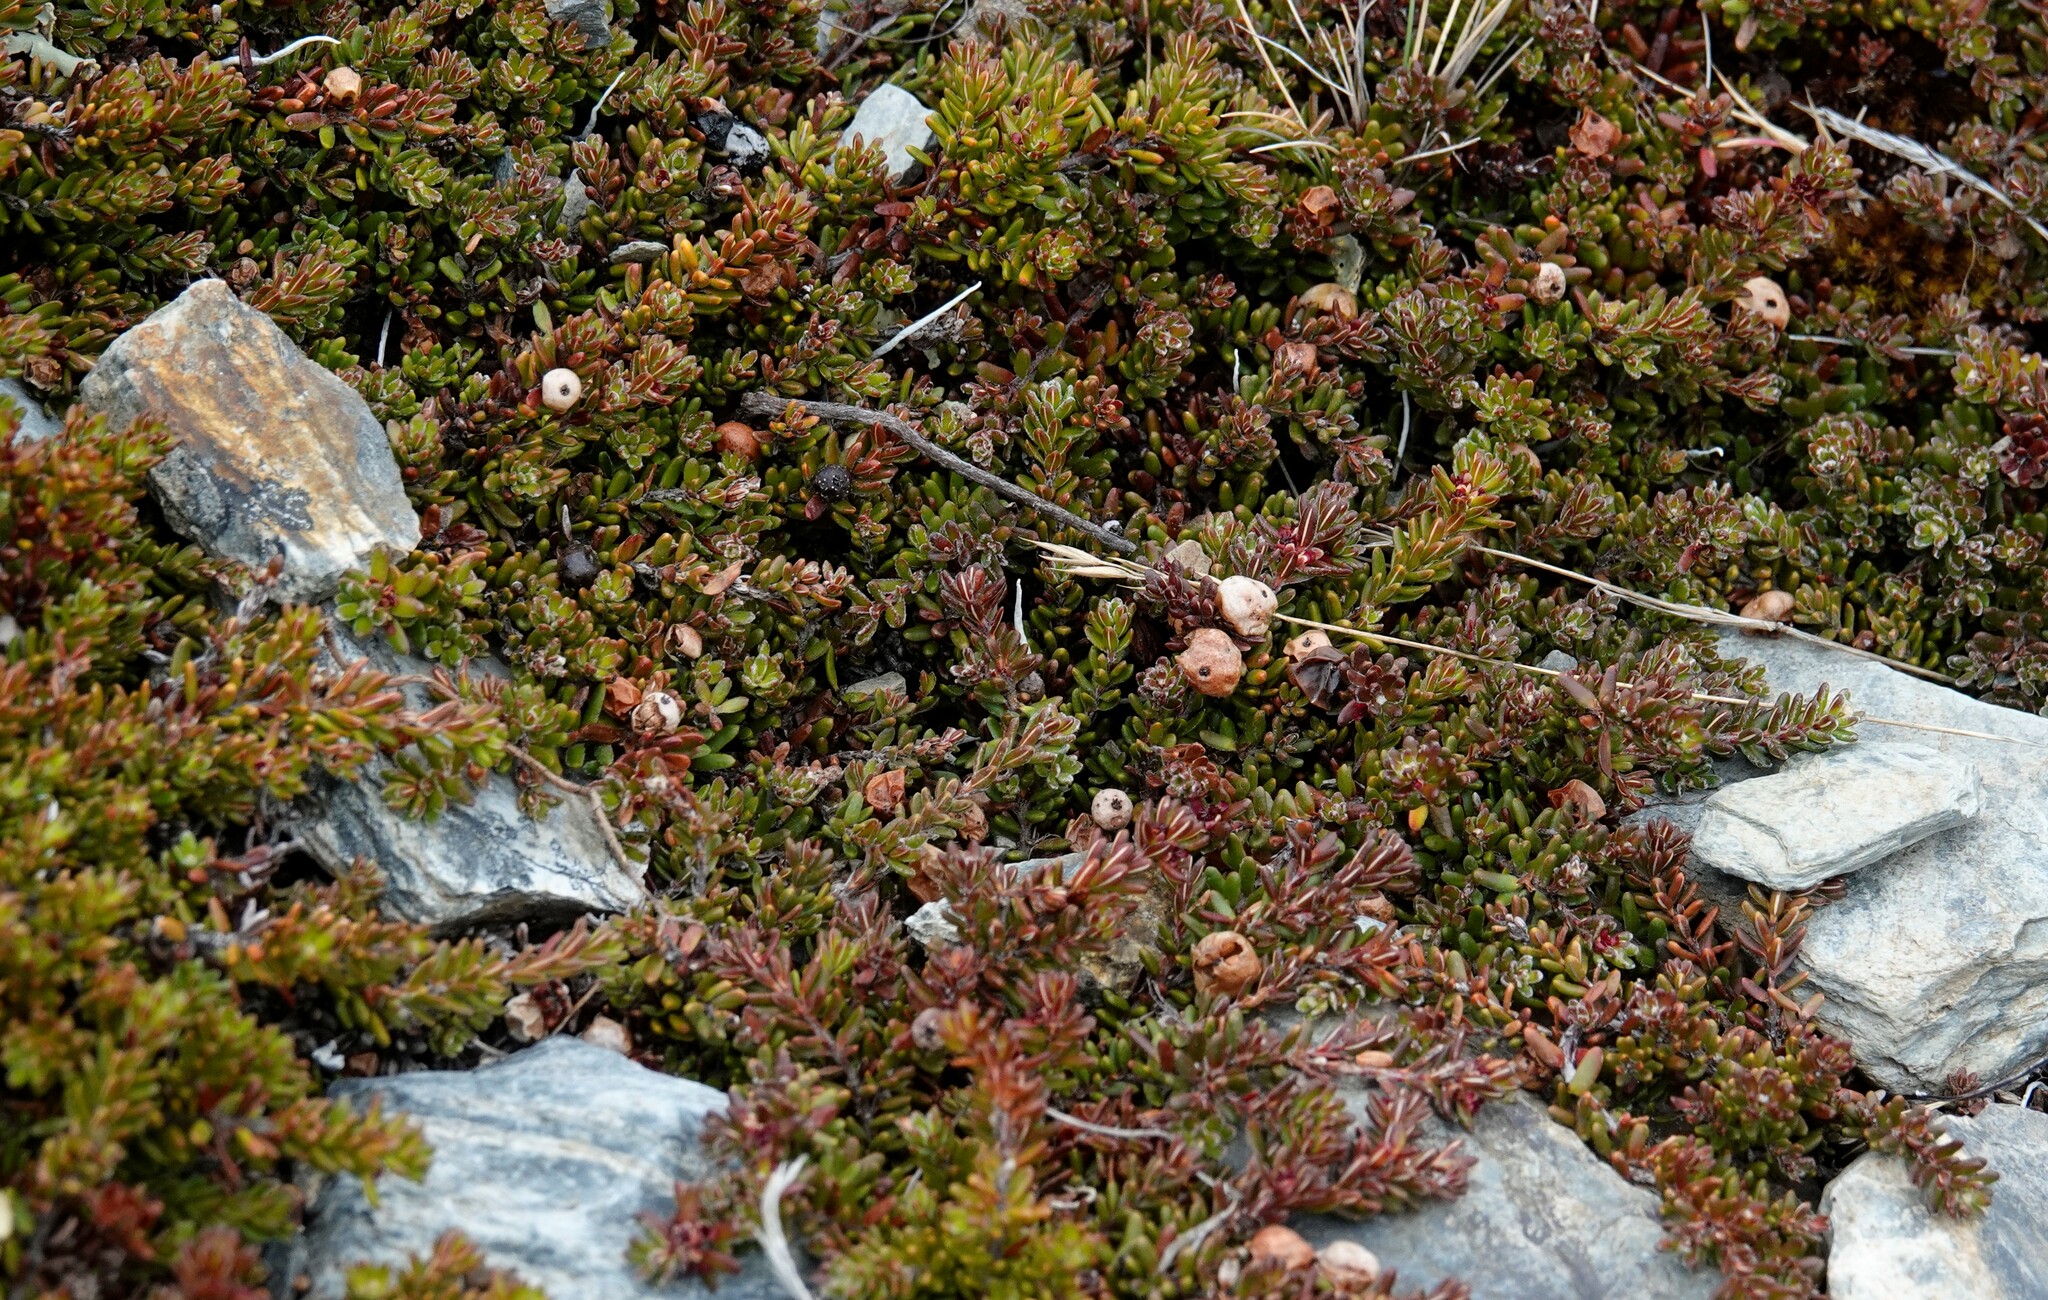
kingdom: Plantae
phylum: Tracheophyta
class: Magnoliopsida
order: Ericales
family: Ericaceae
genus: Empetrum
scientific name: Empetrum rubrum
